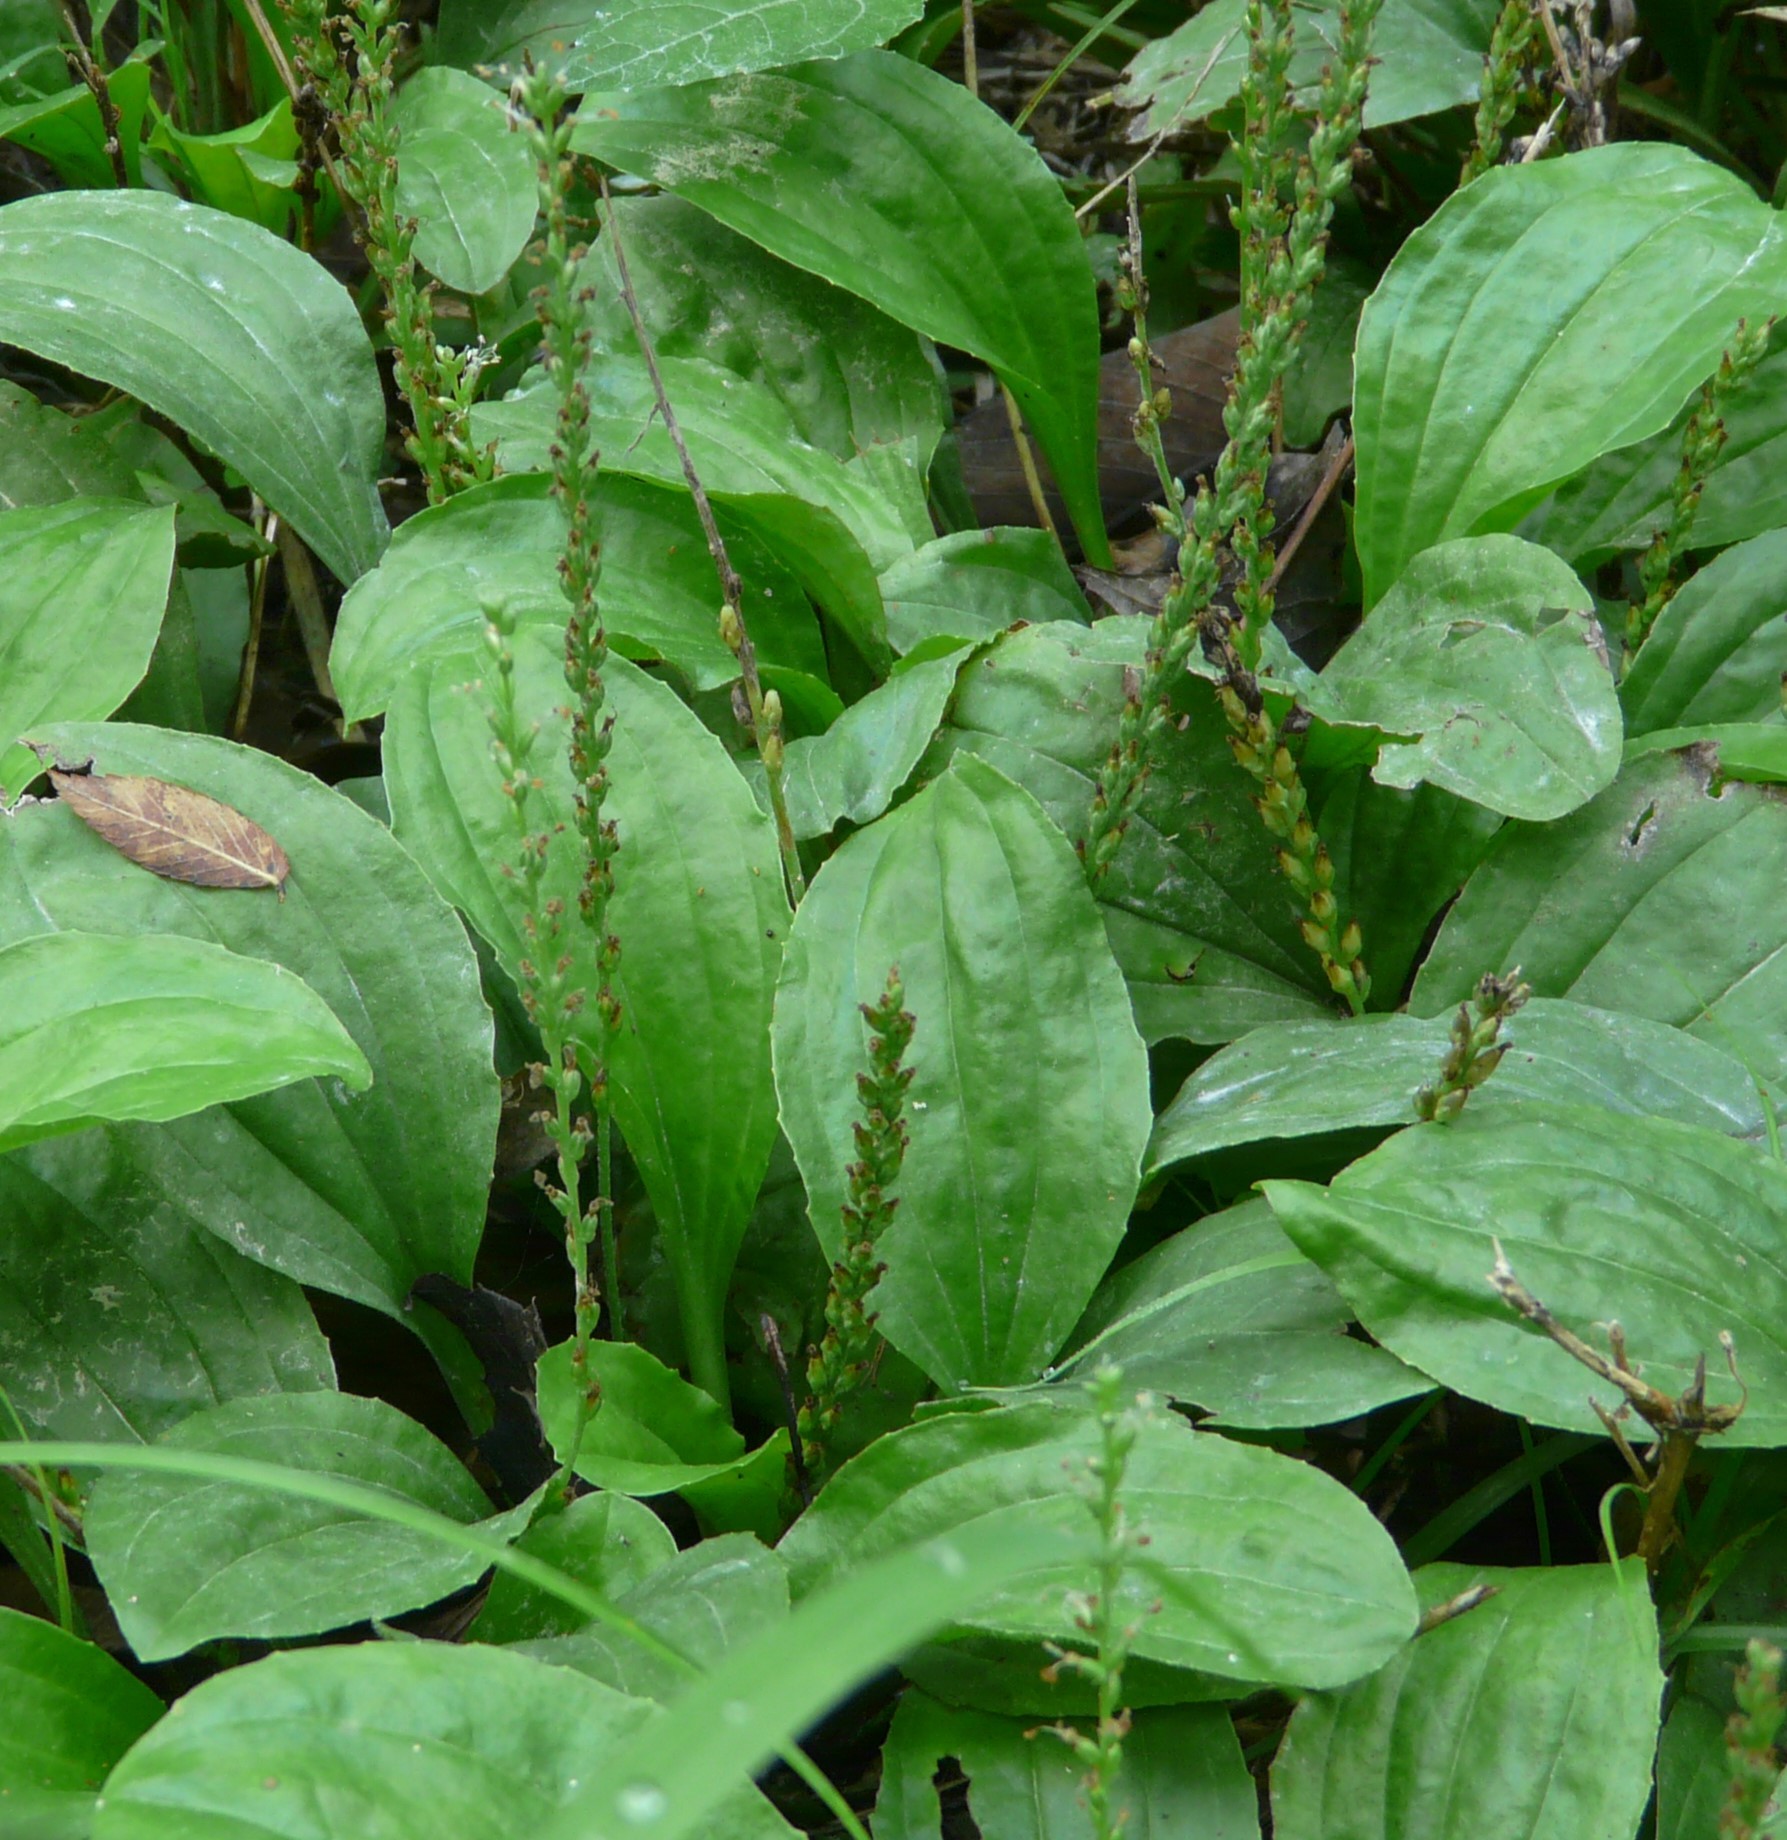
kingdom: Plantae
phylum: Tracheophyta
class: Magnoliopsida
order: Lamiales
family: Plantaginaceae
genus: Plantago
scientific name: Plantago major
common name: Common plantain
